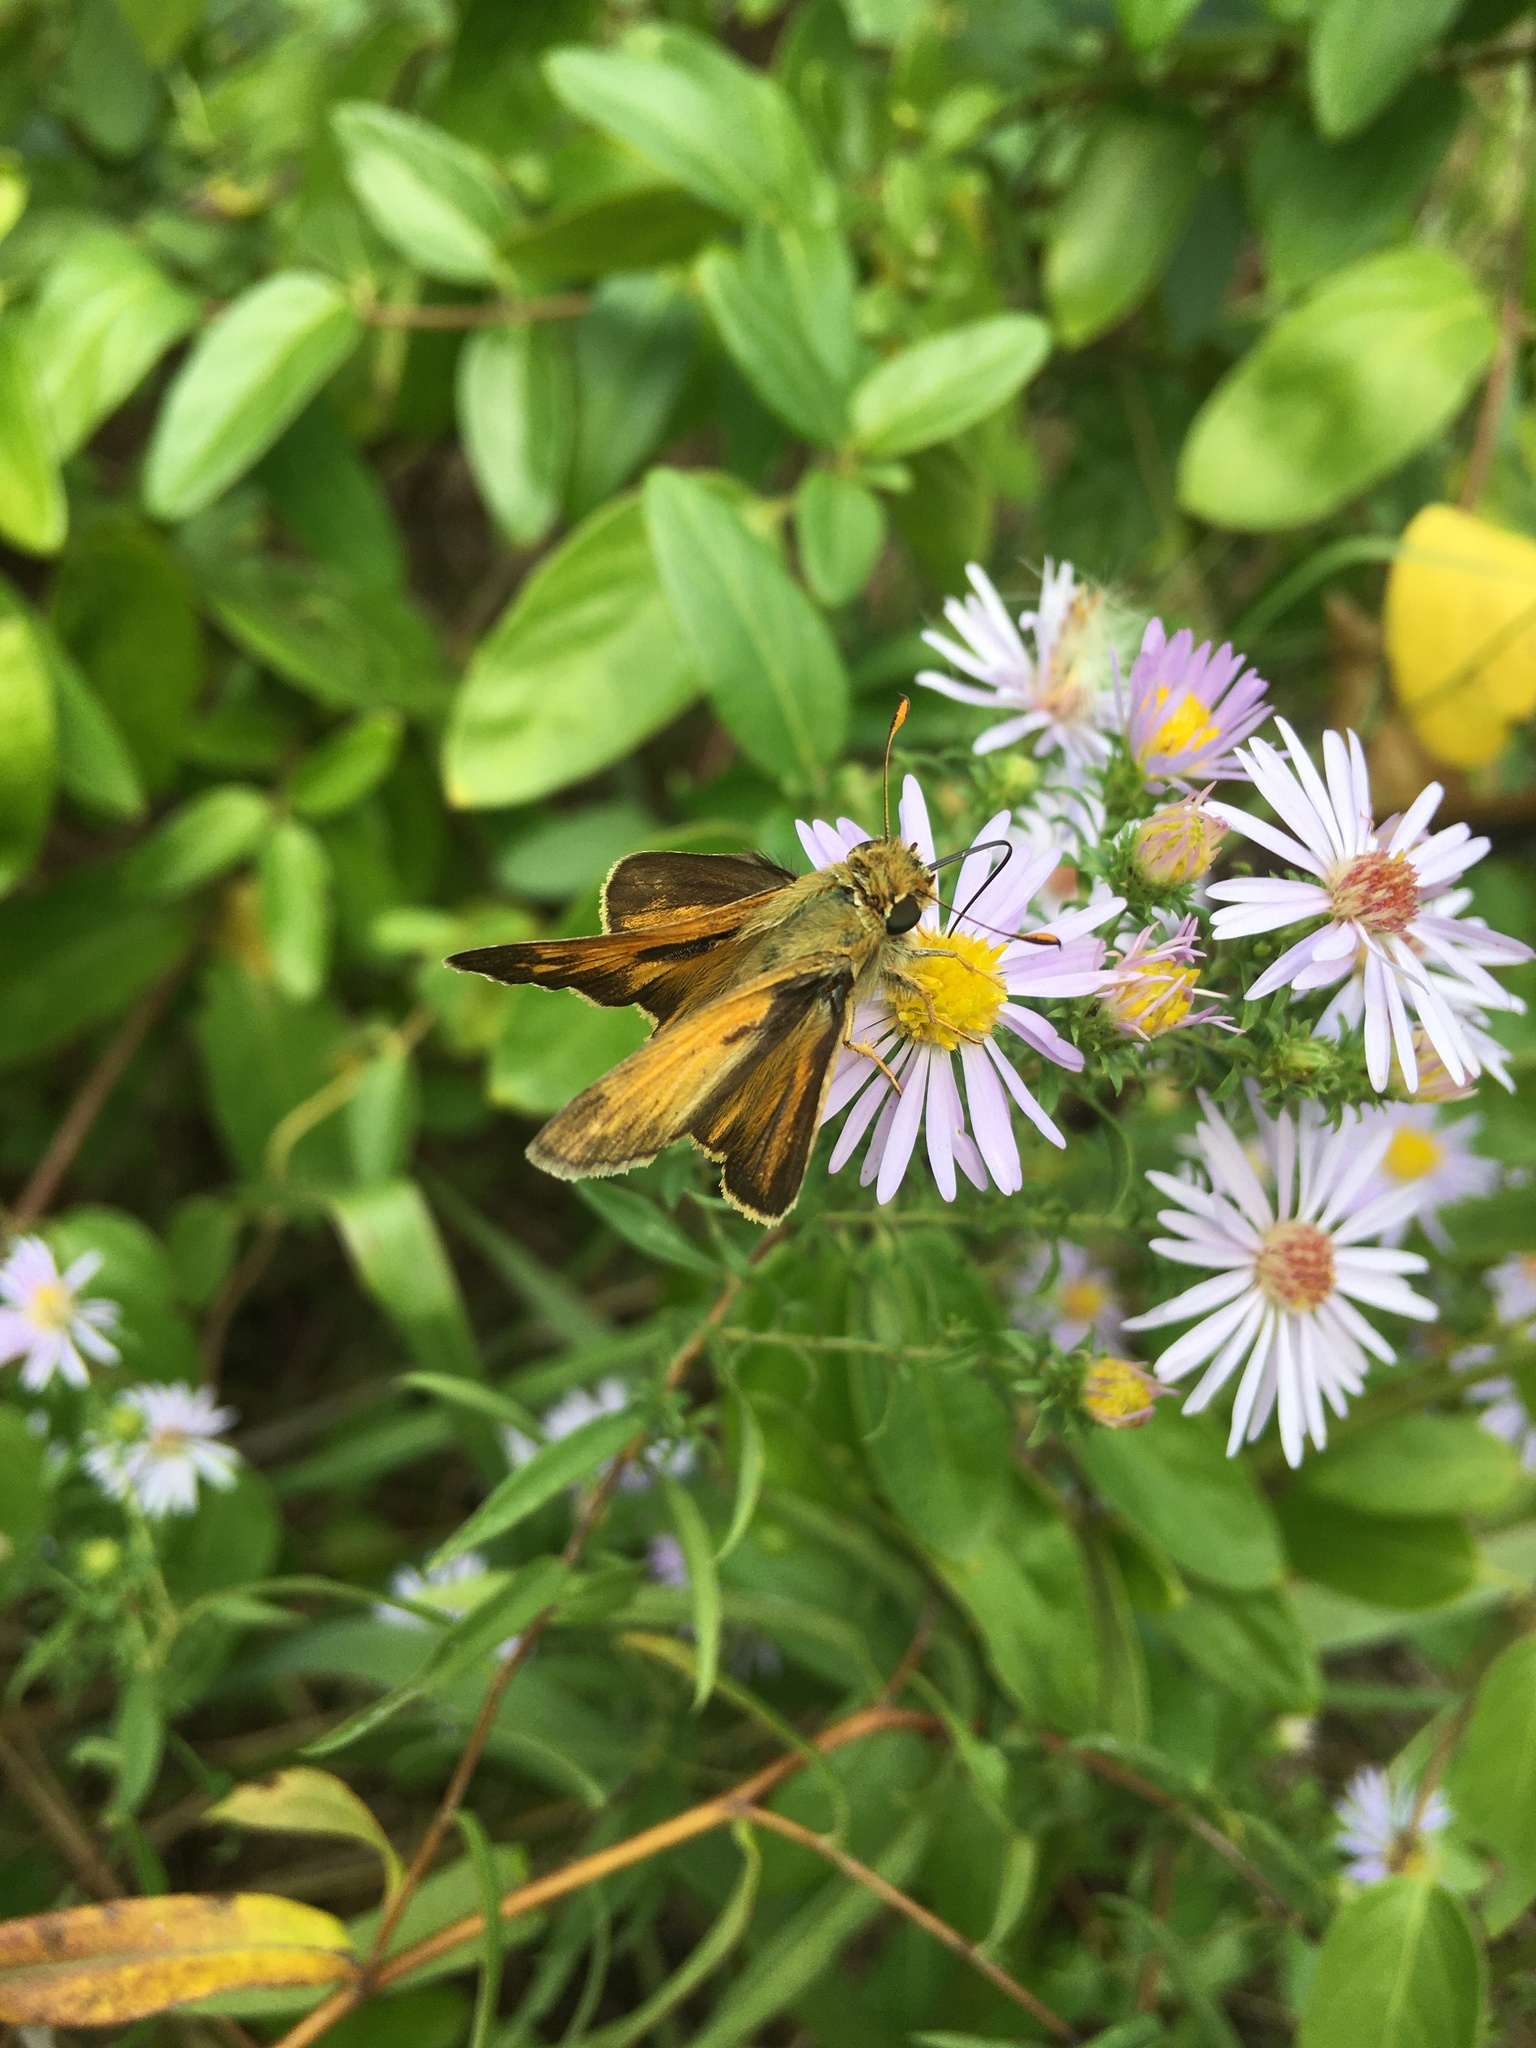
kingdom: Animalia
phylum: Arthropoda
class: Insecta
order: Lepidoptera
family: Hesperiidae
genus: Atalopedes
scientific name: Atalopedes
